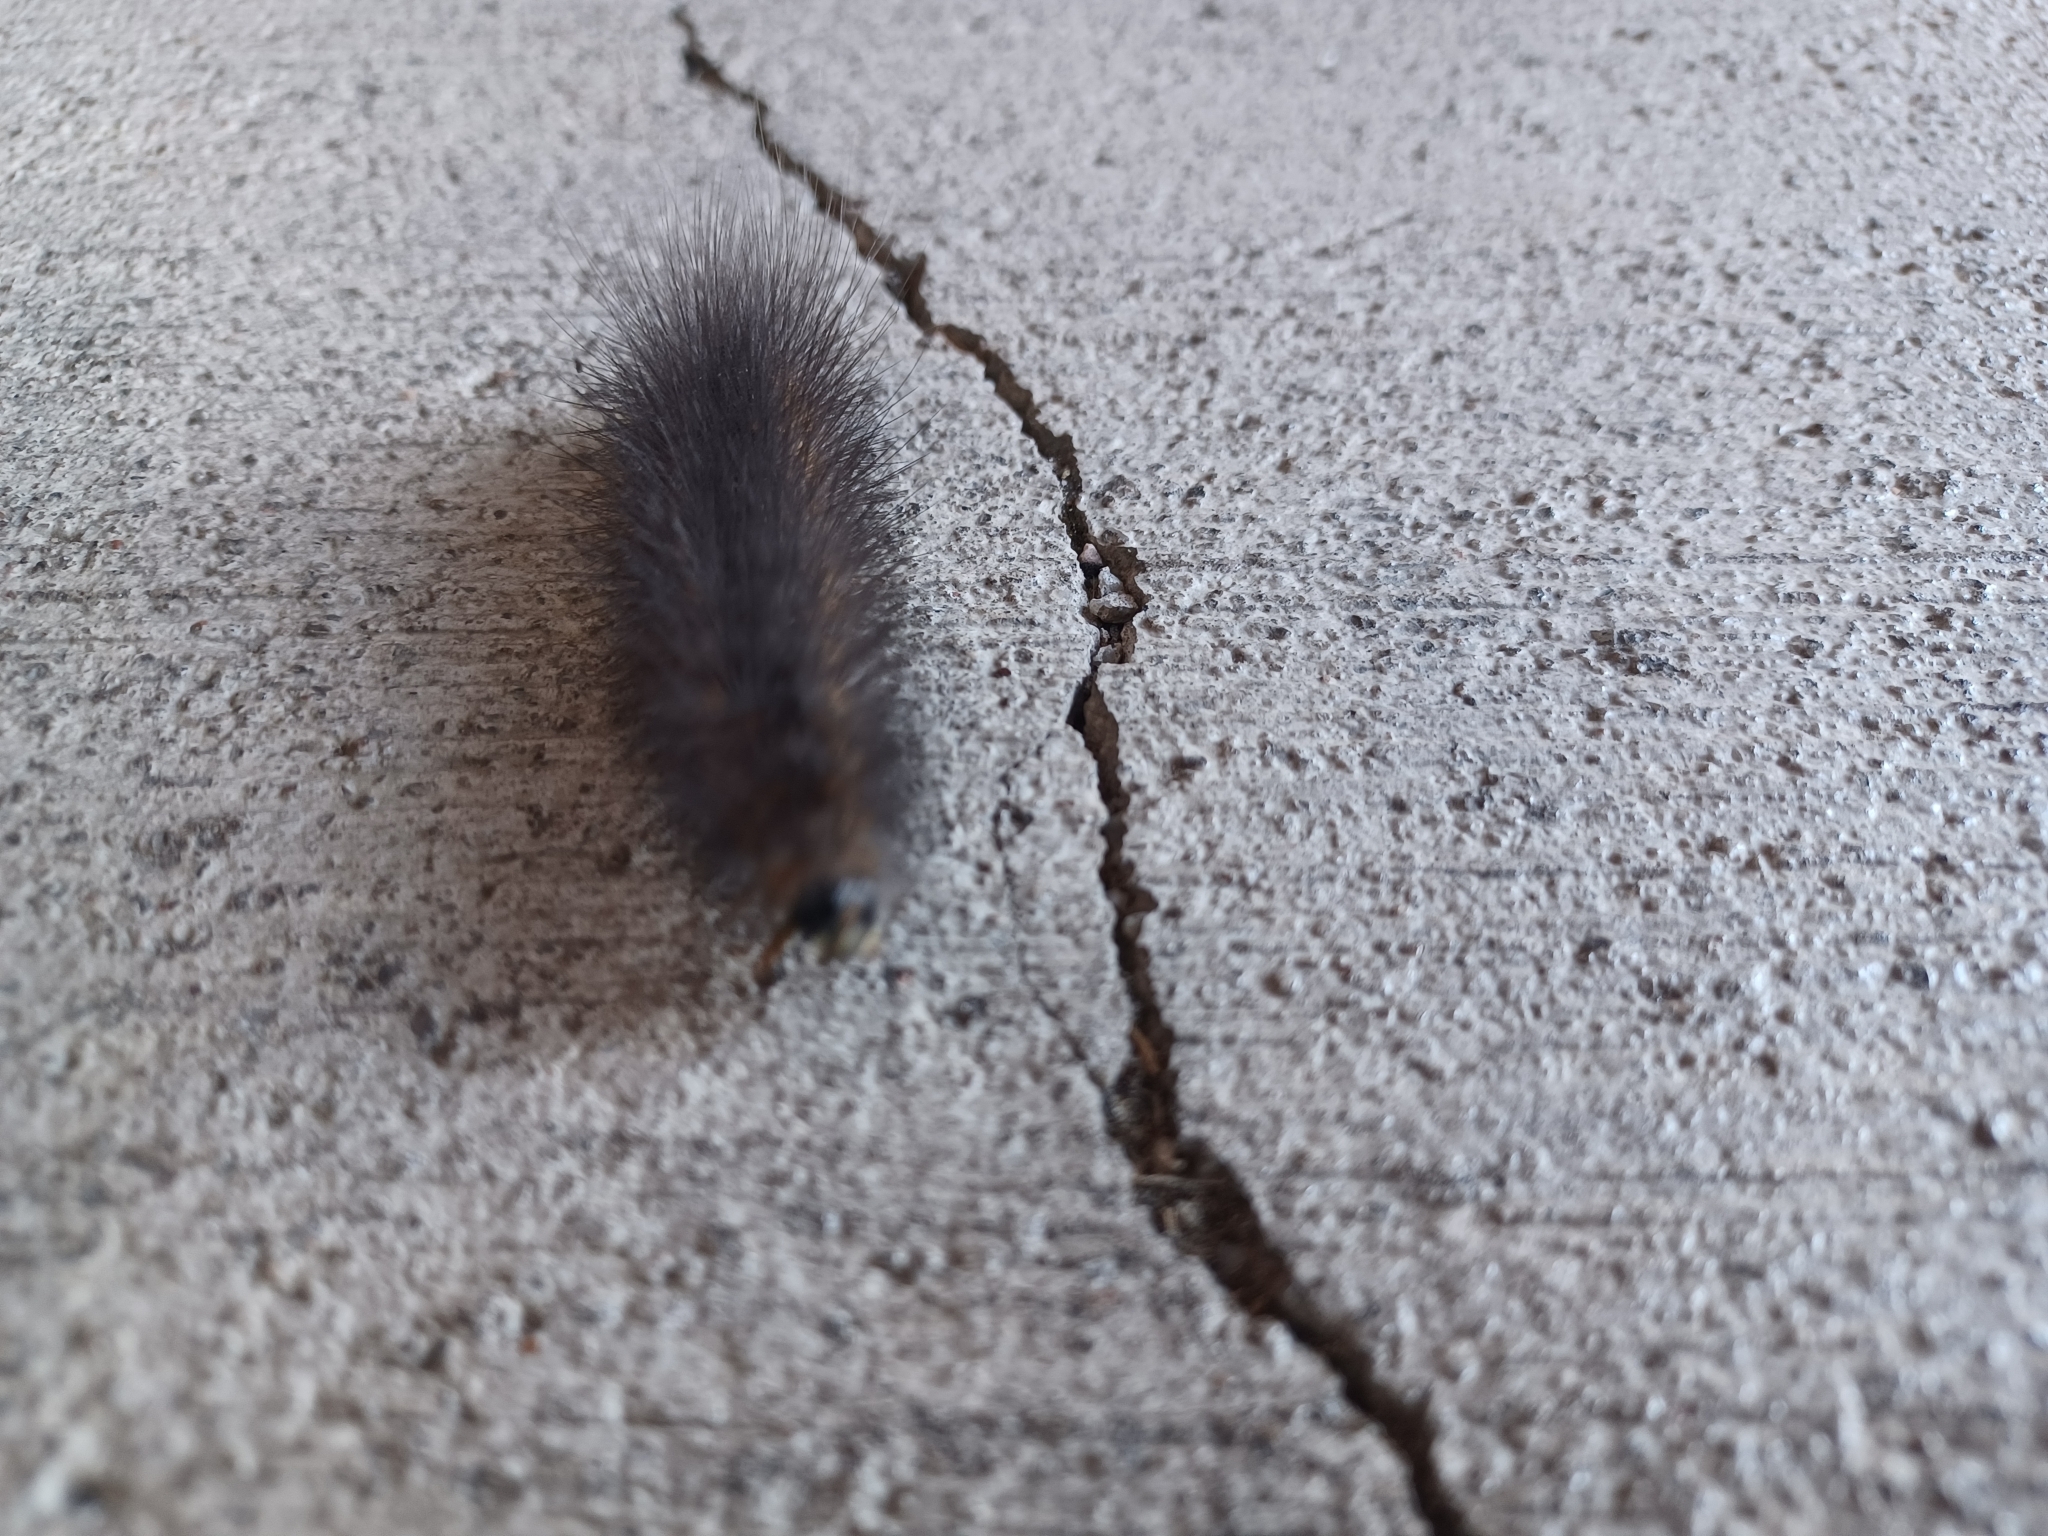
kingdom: Animalia
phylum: Arthropoda
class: Insecta
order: Lepidoptera
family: Erebidae
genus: Estigmene
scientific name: Estigmene
